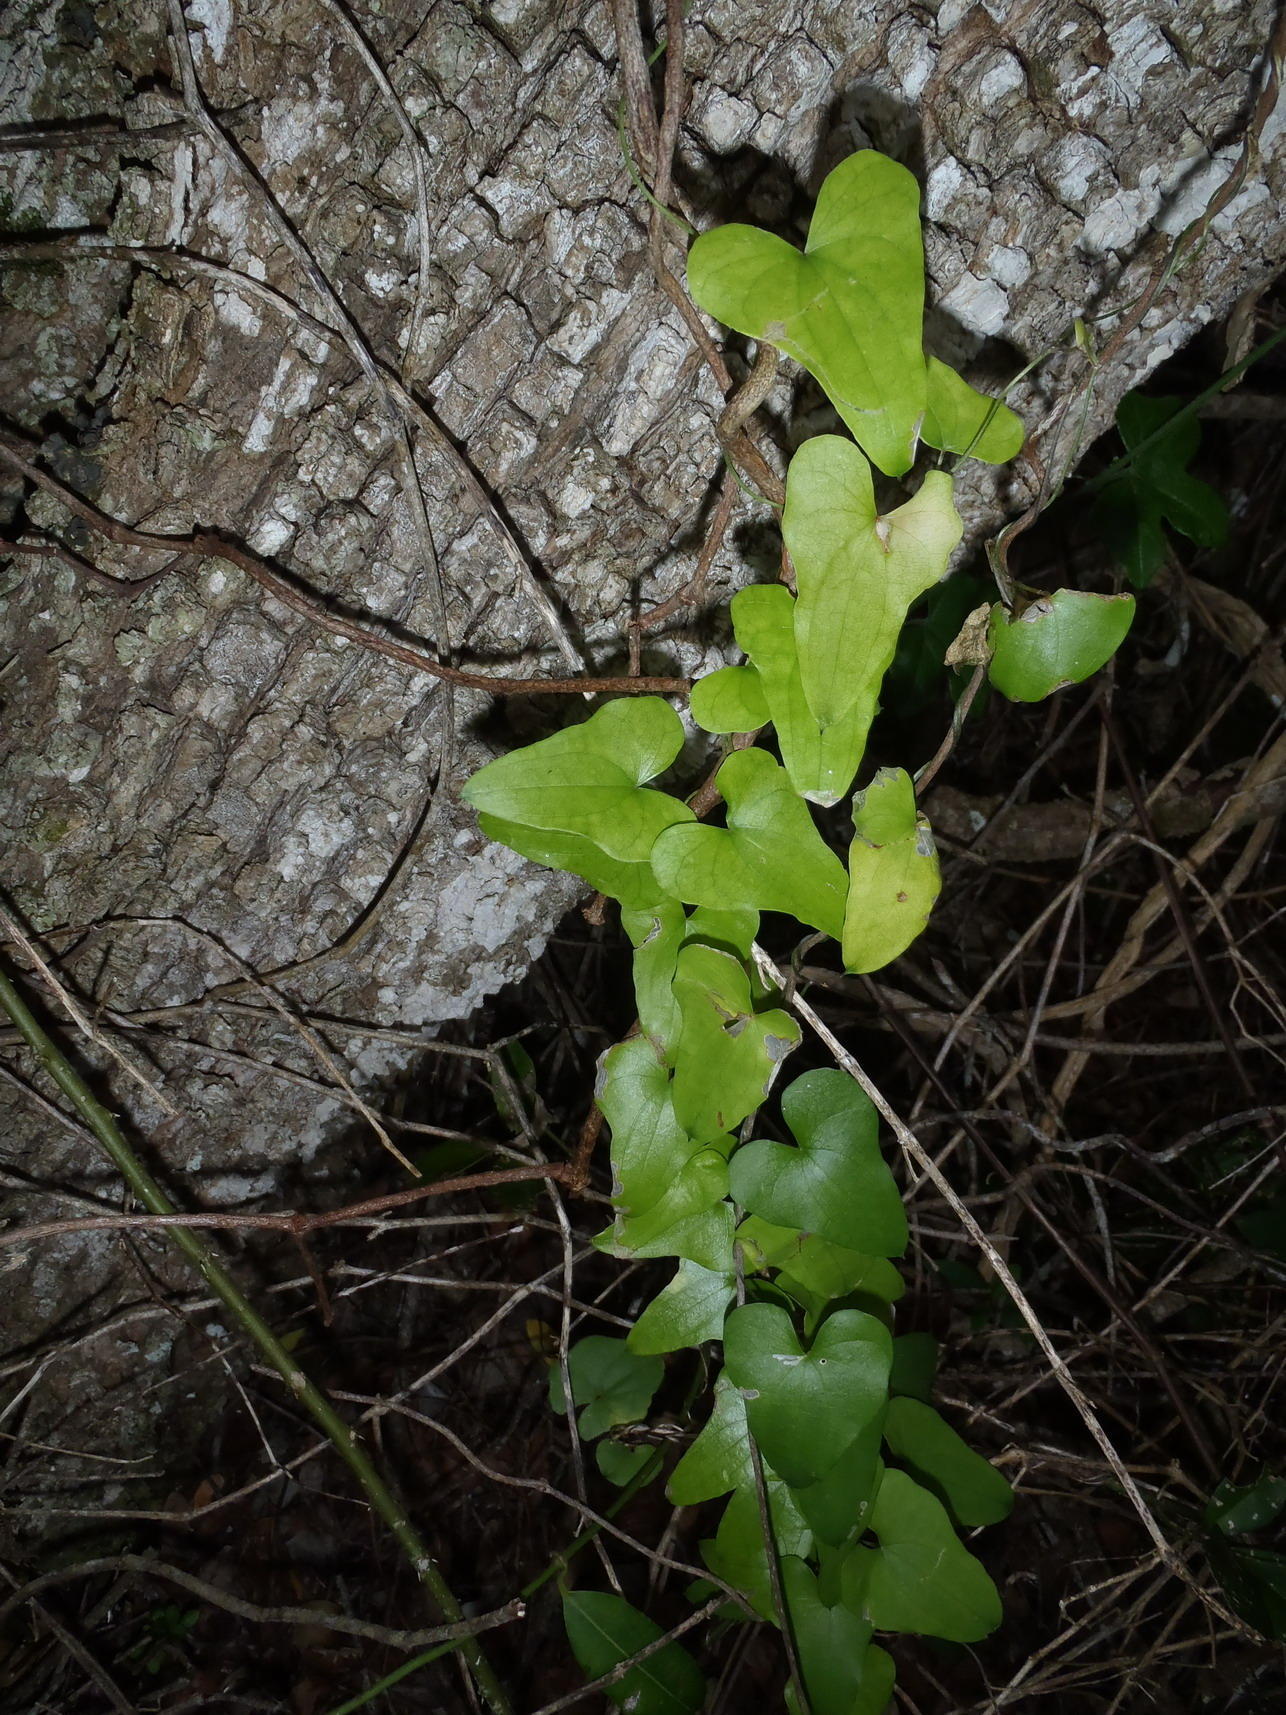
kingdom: Plantae
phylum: Tracheophyta
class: Liliopsida
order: Dioscoreales
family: Dioscoreaceae
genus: Dioscorea
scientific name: Dioscorea sylvatica
